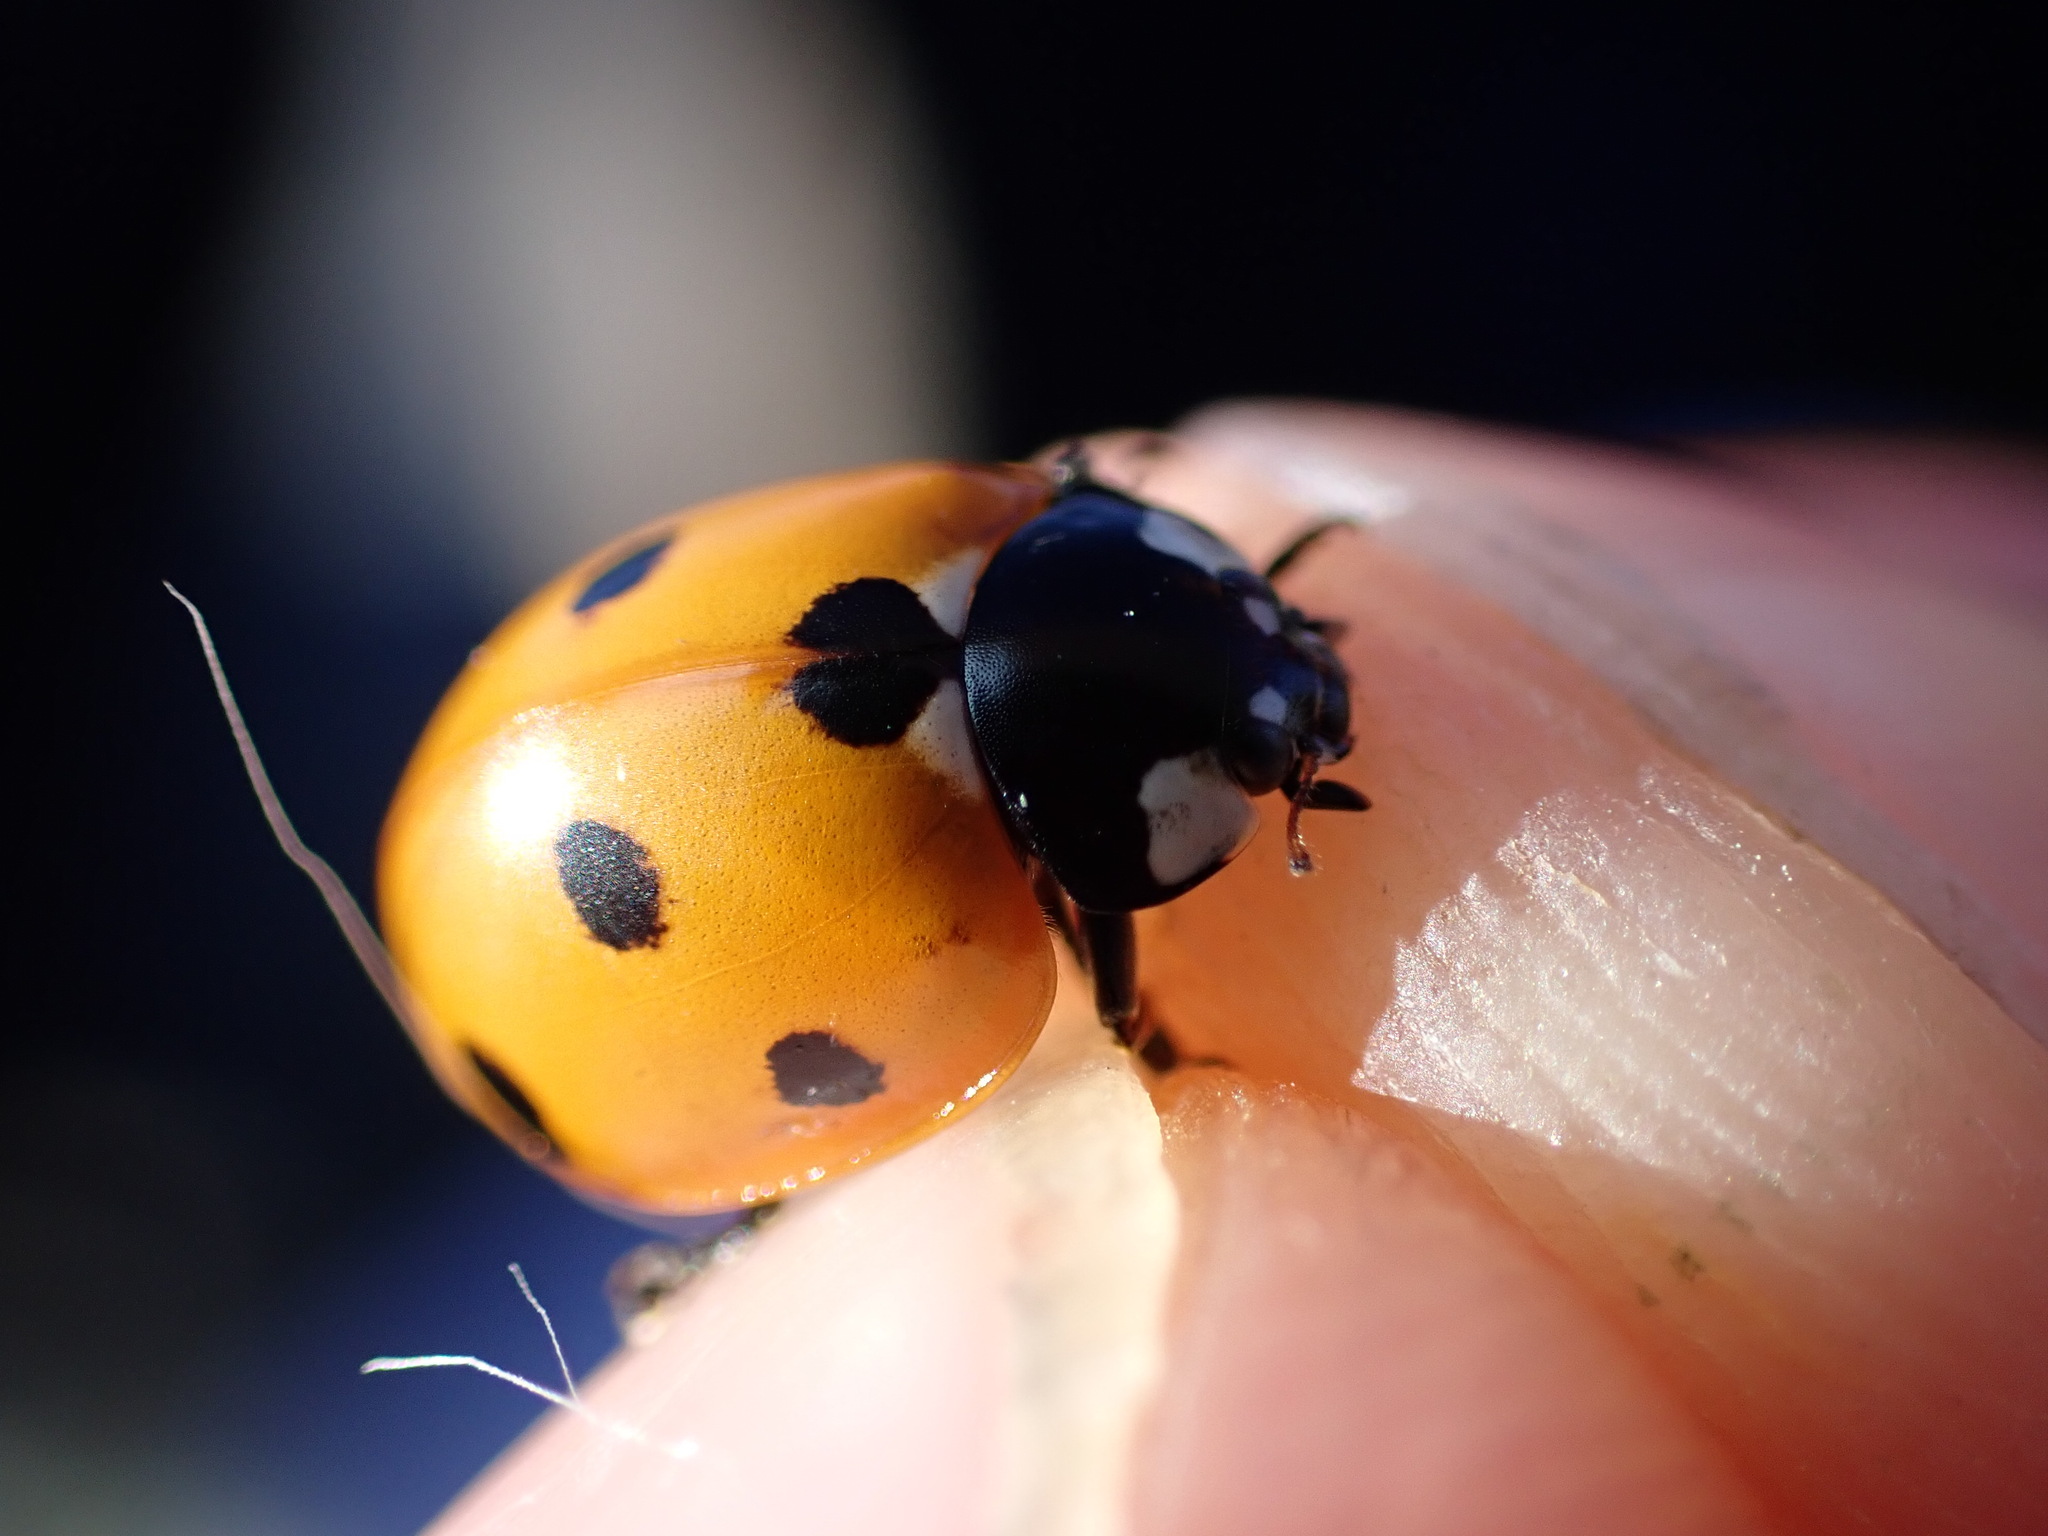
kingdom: Animalia
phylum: Arthropoda
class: Insecta
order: Coleoptera
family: Coccinellidae
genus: Coccinella
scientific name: Coccinella septempunctata
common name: Sevenspotted lady beetle
